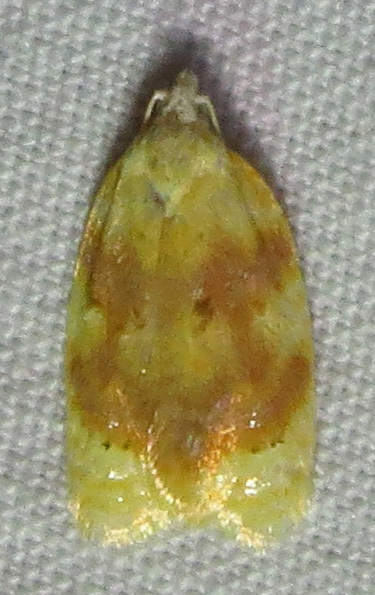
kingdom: Animalia
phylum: Arthropoda
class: Insecta
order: Lepidoptera
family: Tortricidae
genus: Acleris
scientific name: Acleris semipurpurana
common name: Oak leaftier moth
